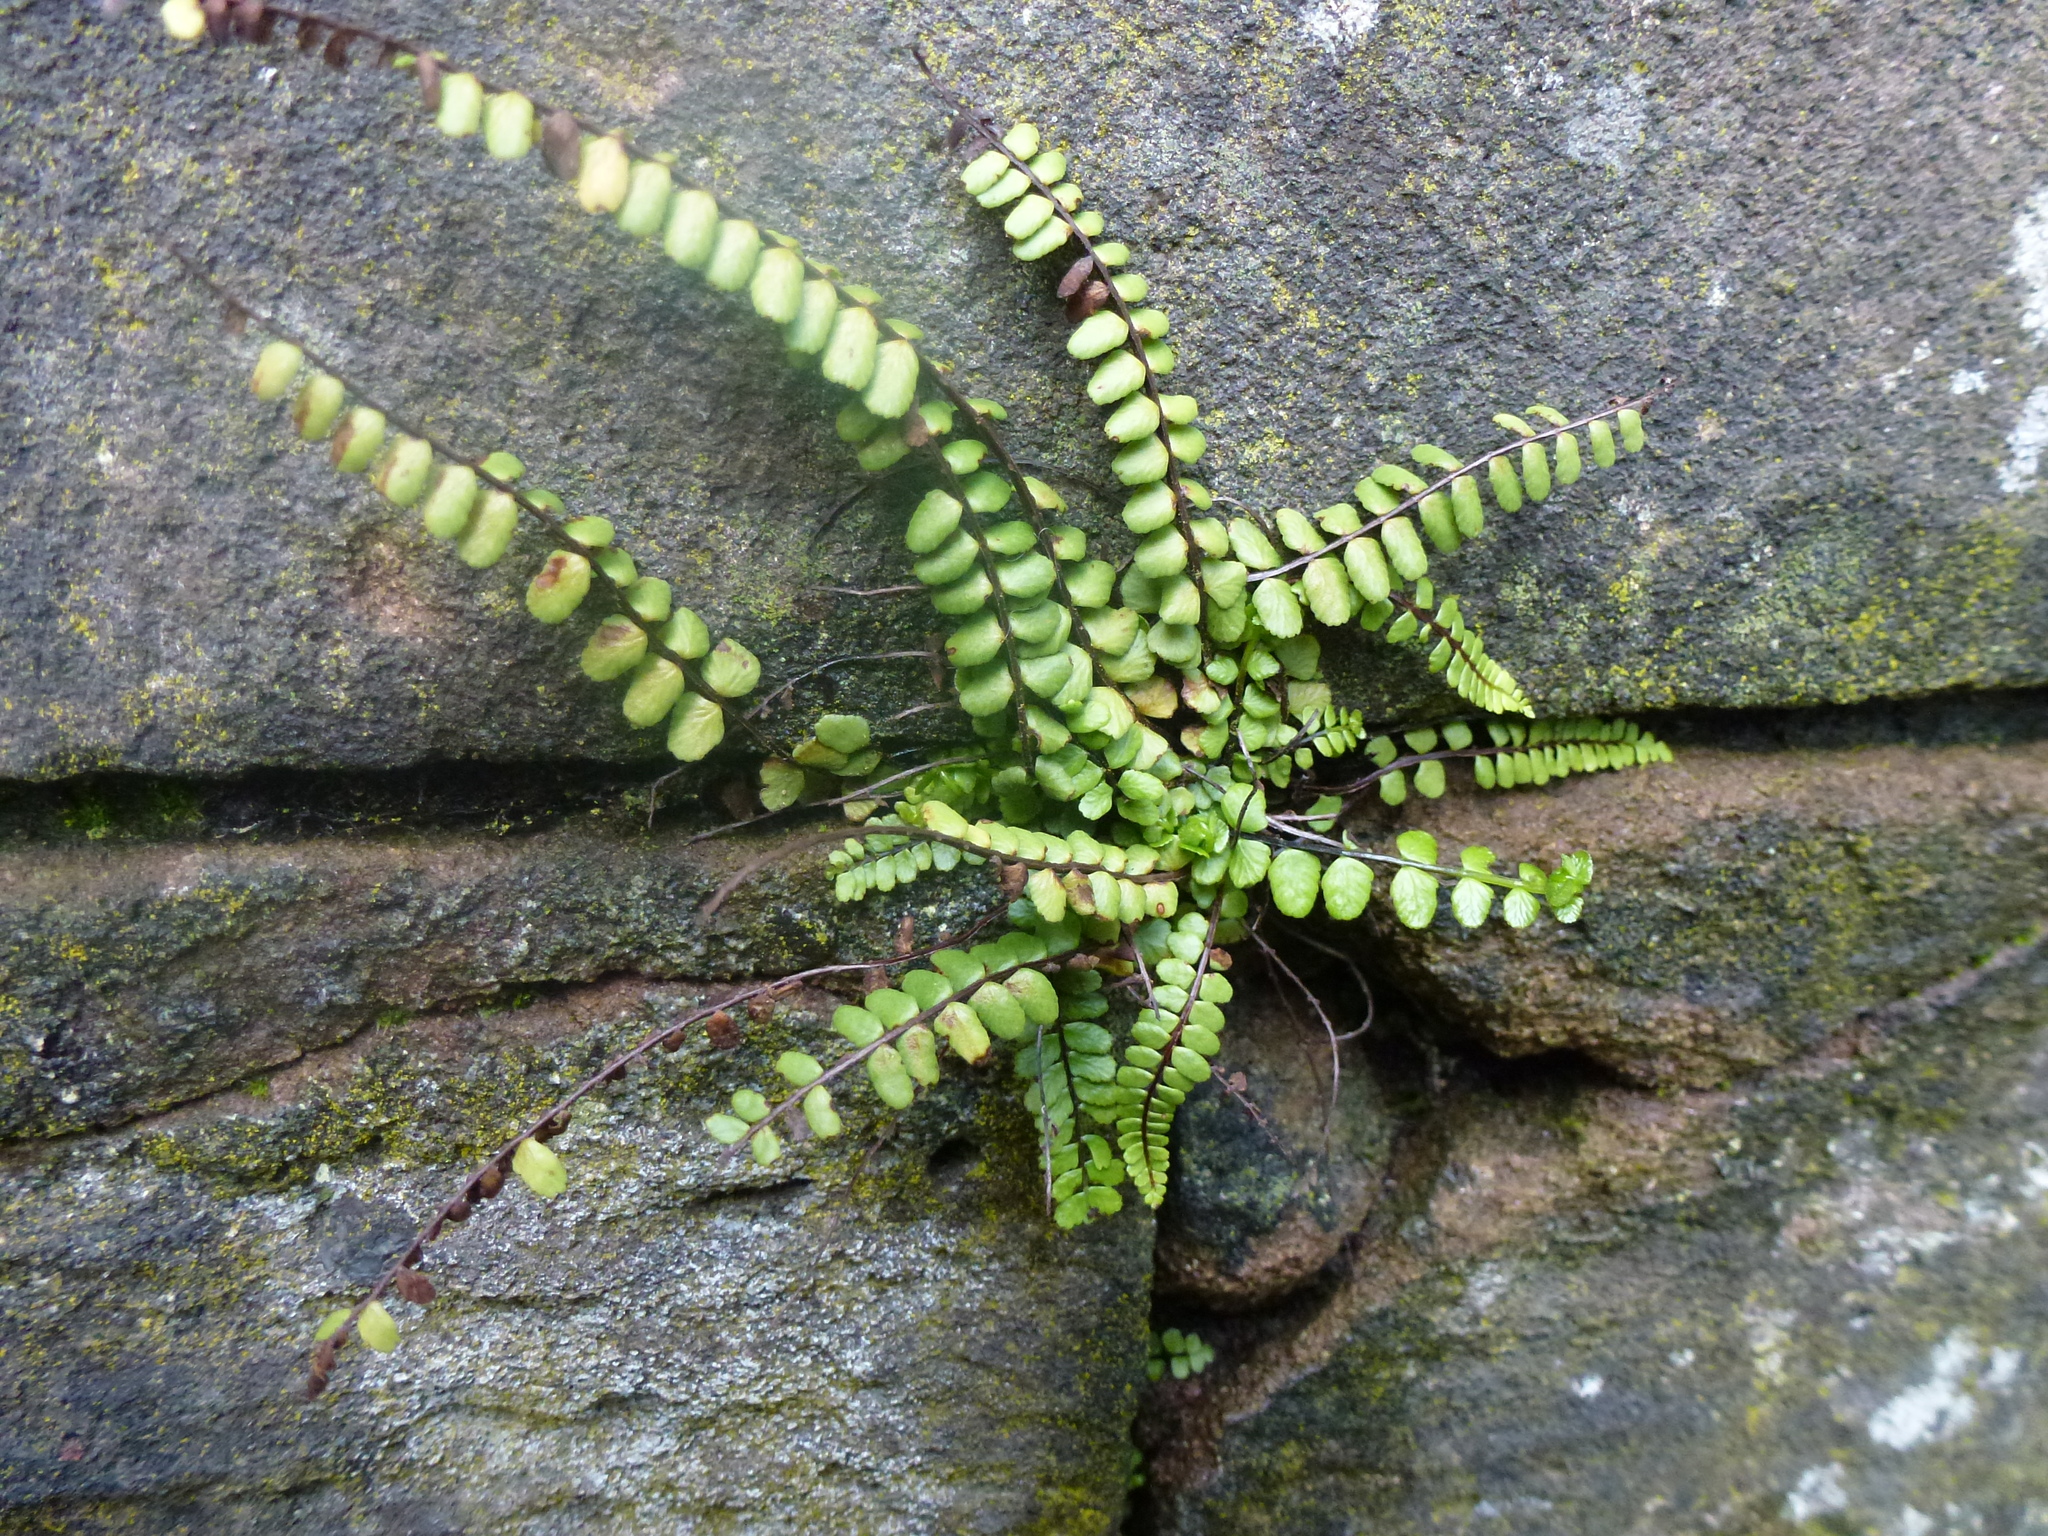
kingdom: Plantae
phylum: Tracheophyta
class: Polypodiopsida
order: Polypodiales
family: Aspleniaceae
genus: Asplenium
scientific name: Asplenium trichomanes
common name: Maidenhair spleenwort
